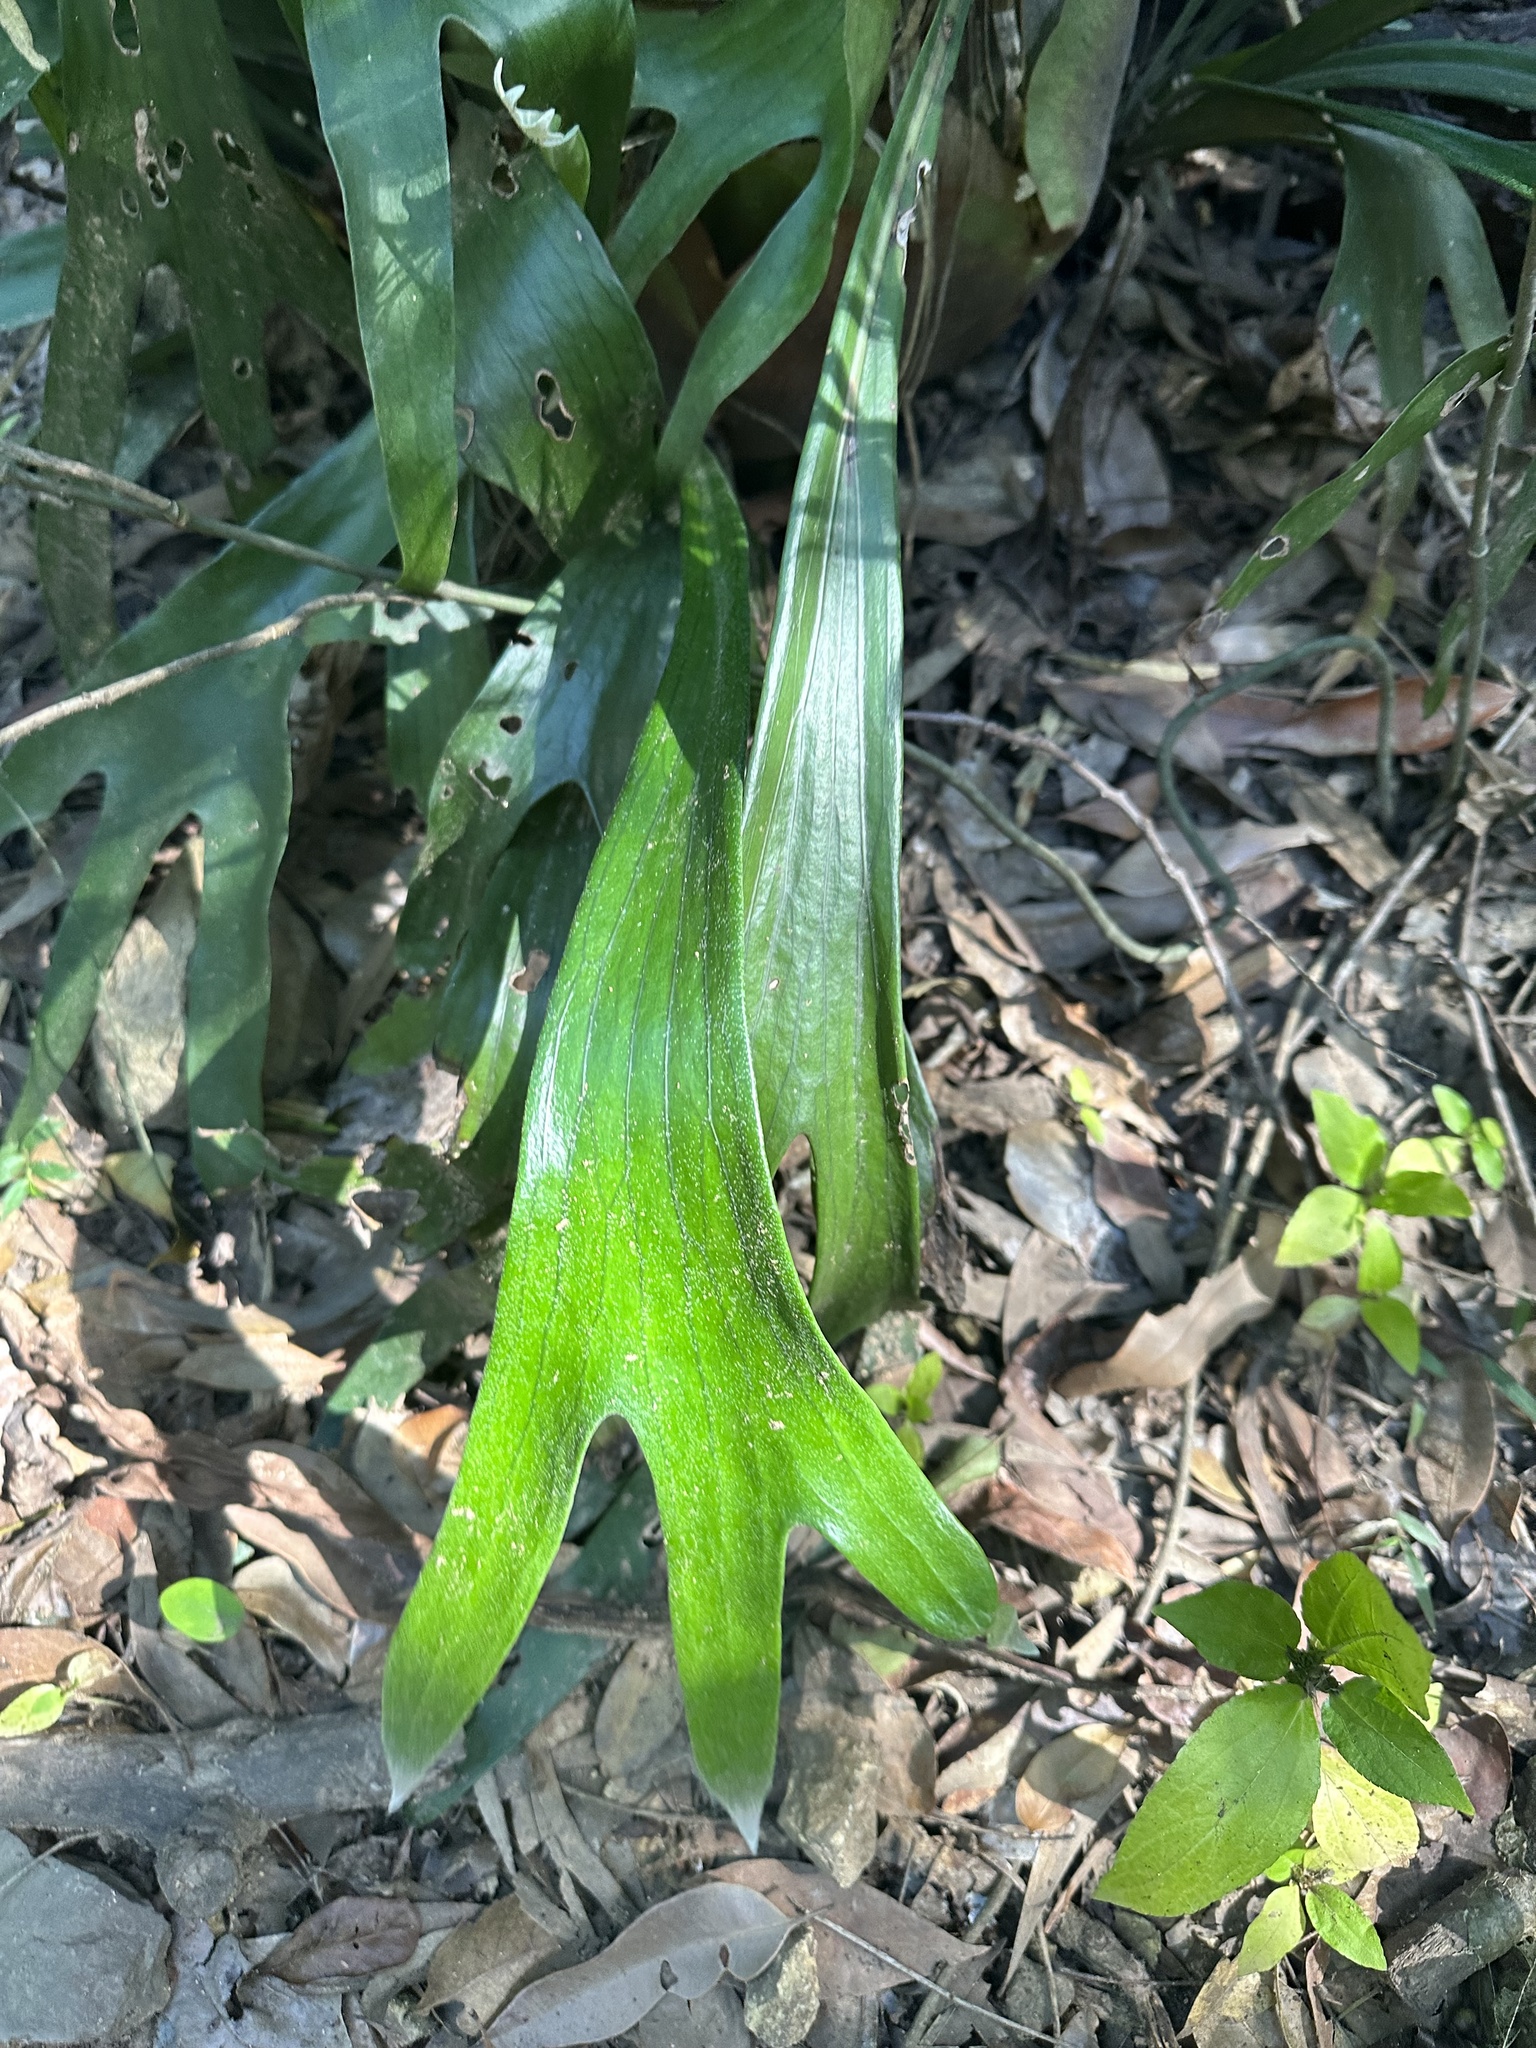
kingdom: Plantae
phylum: Tracheophyta
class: Polypodiopsida
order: Polypodiales
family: Polypodiaceae
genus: Platycerium
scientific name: Platycerium bifurcatum
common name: Elkhorn fern
